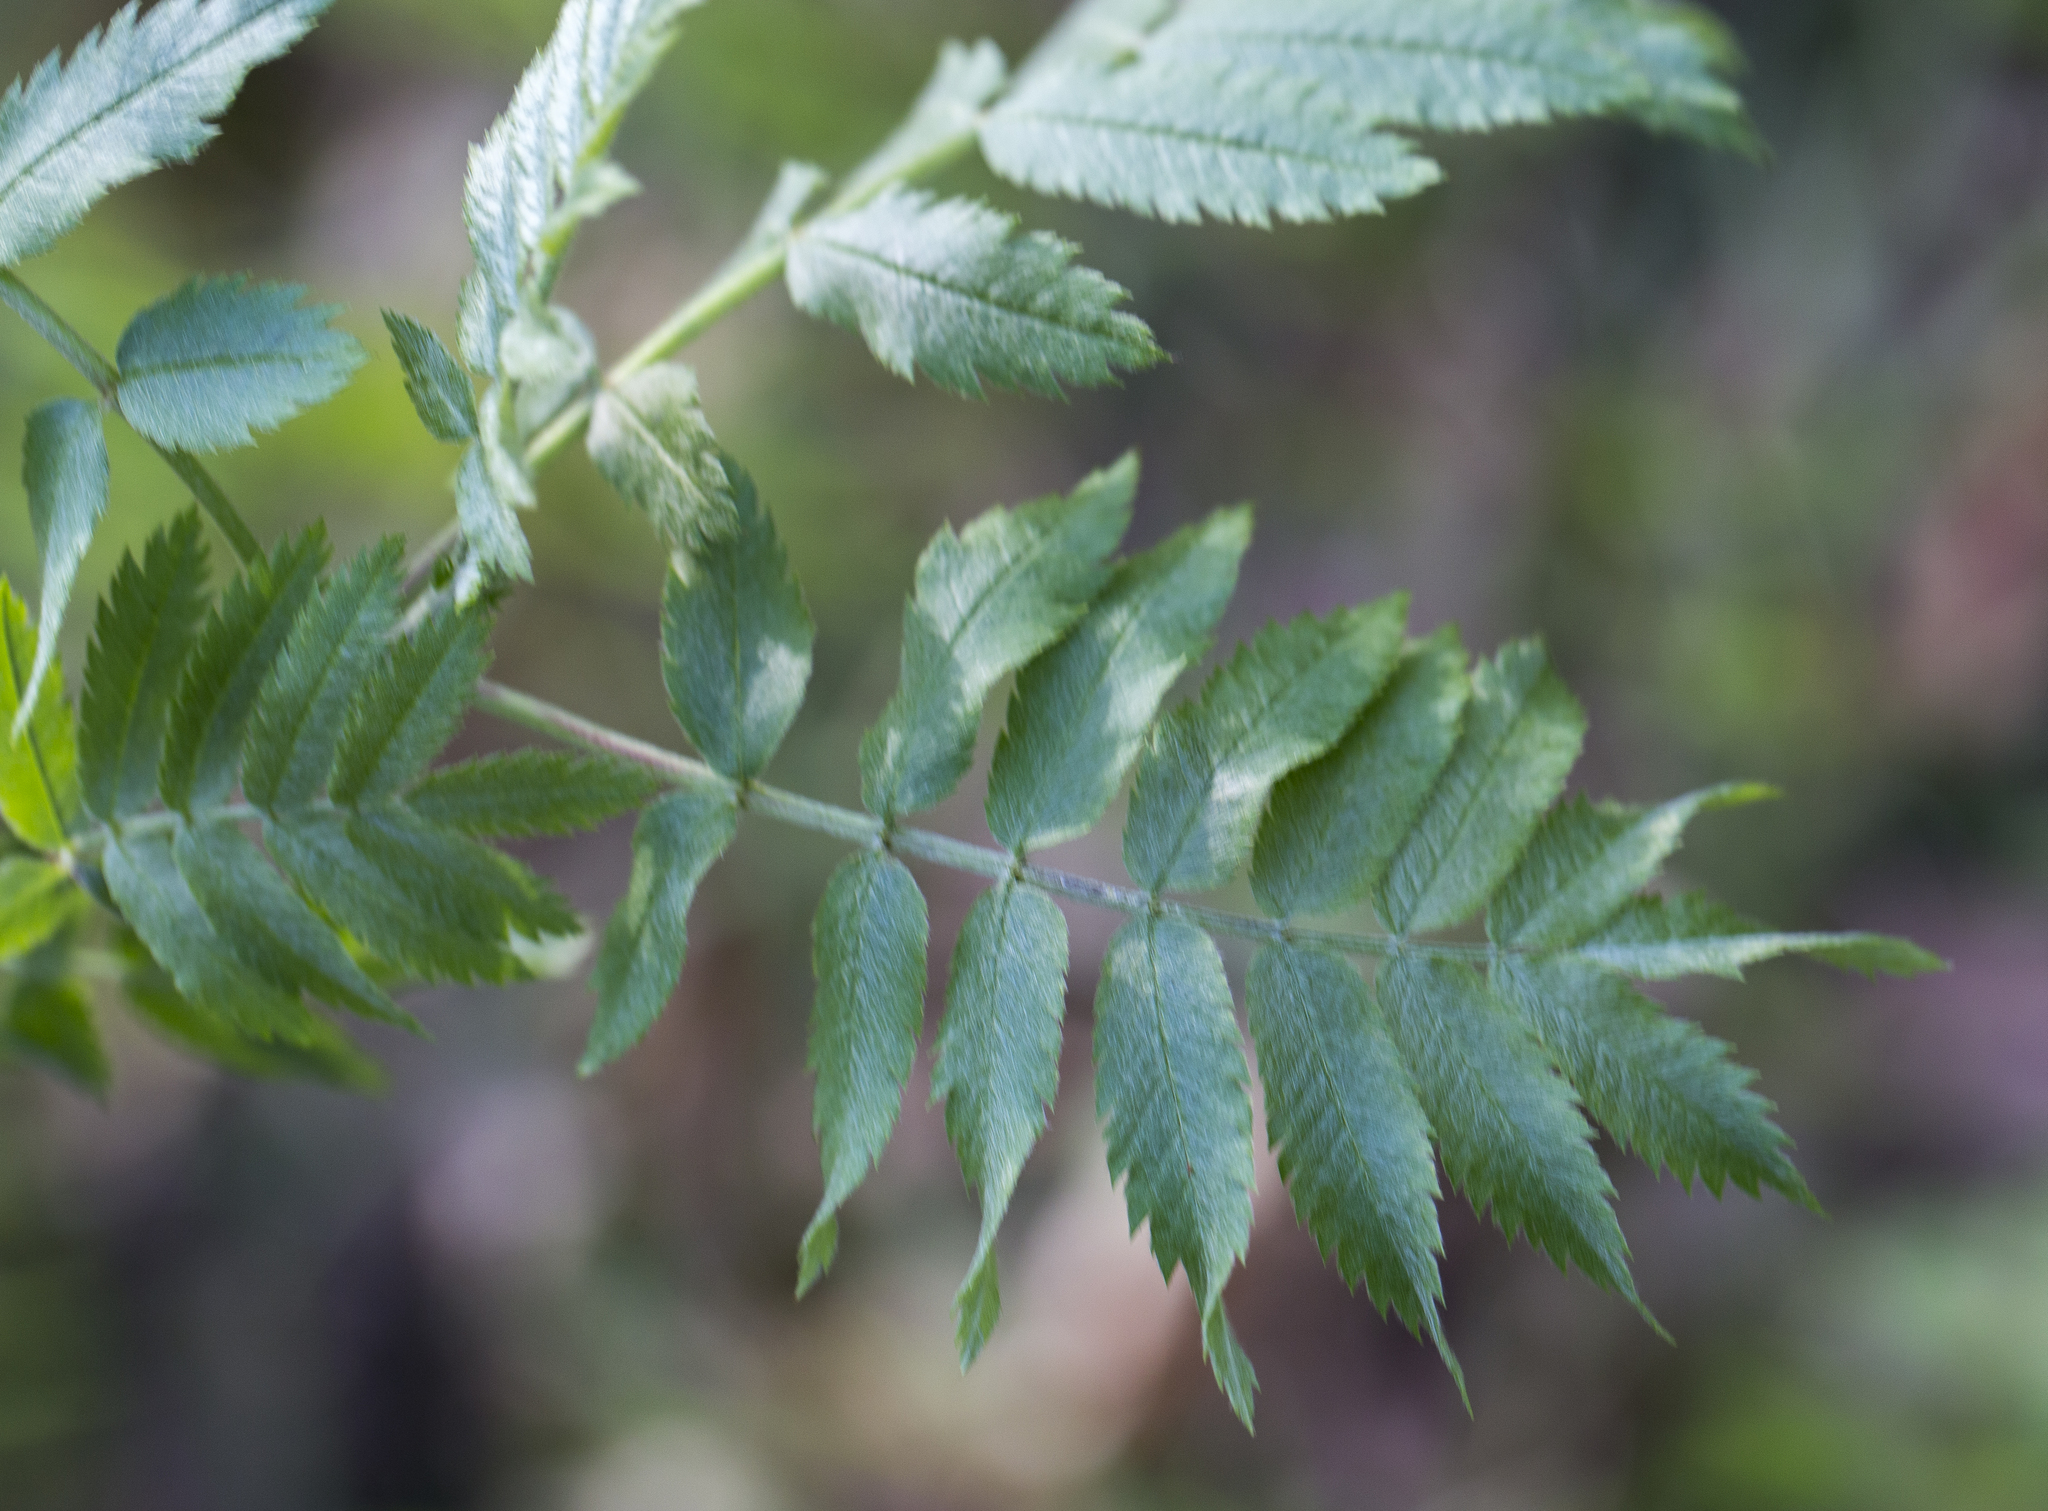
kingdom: Plantae
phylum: Tracheophyta
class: Magnoliopsida
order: Rosales
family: Rosaceae
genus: Sorbus
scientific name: Sorbus aucuparia
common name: Rowan
